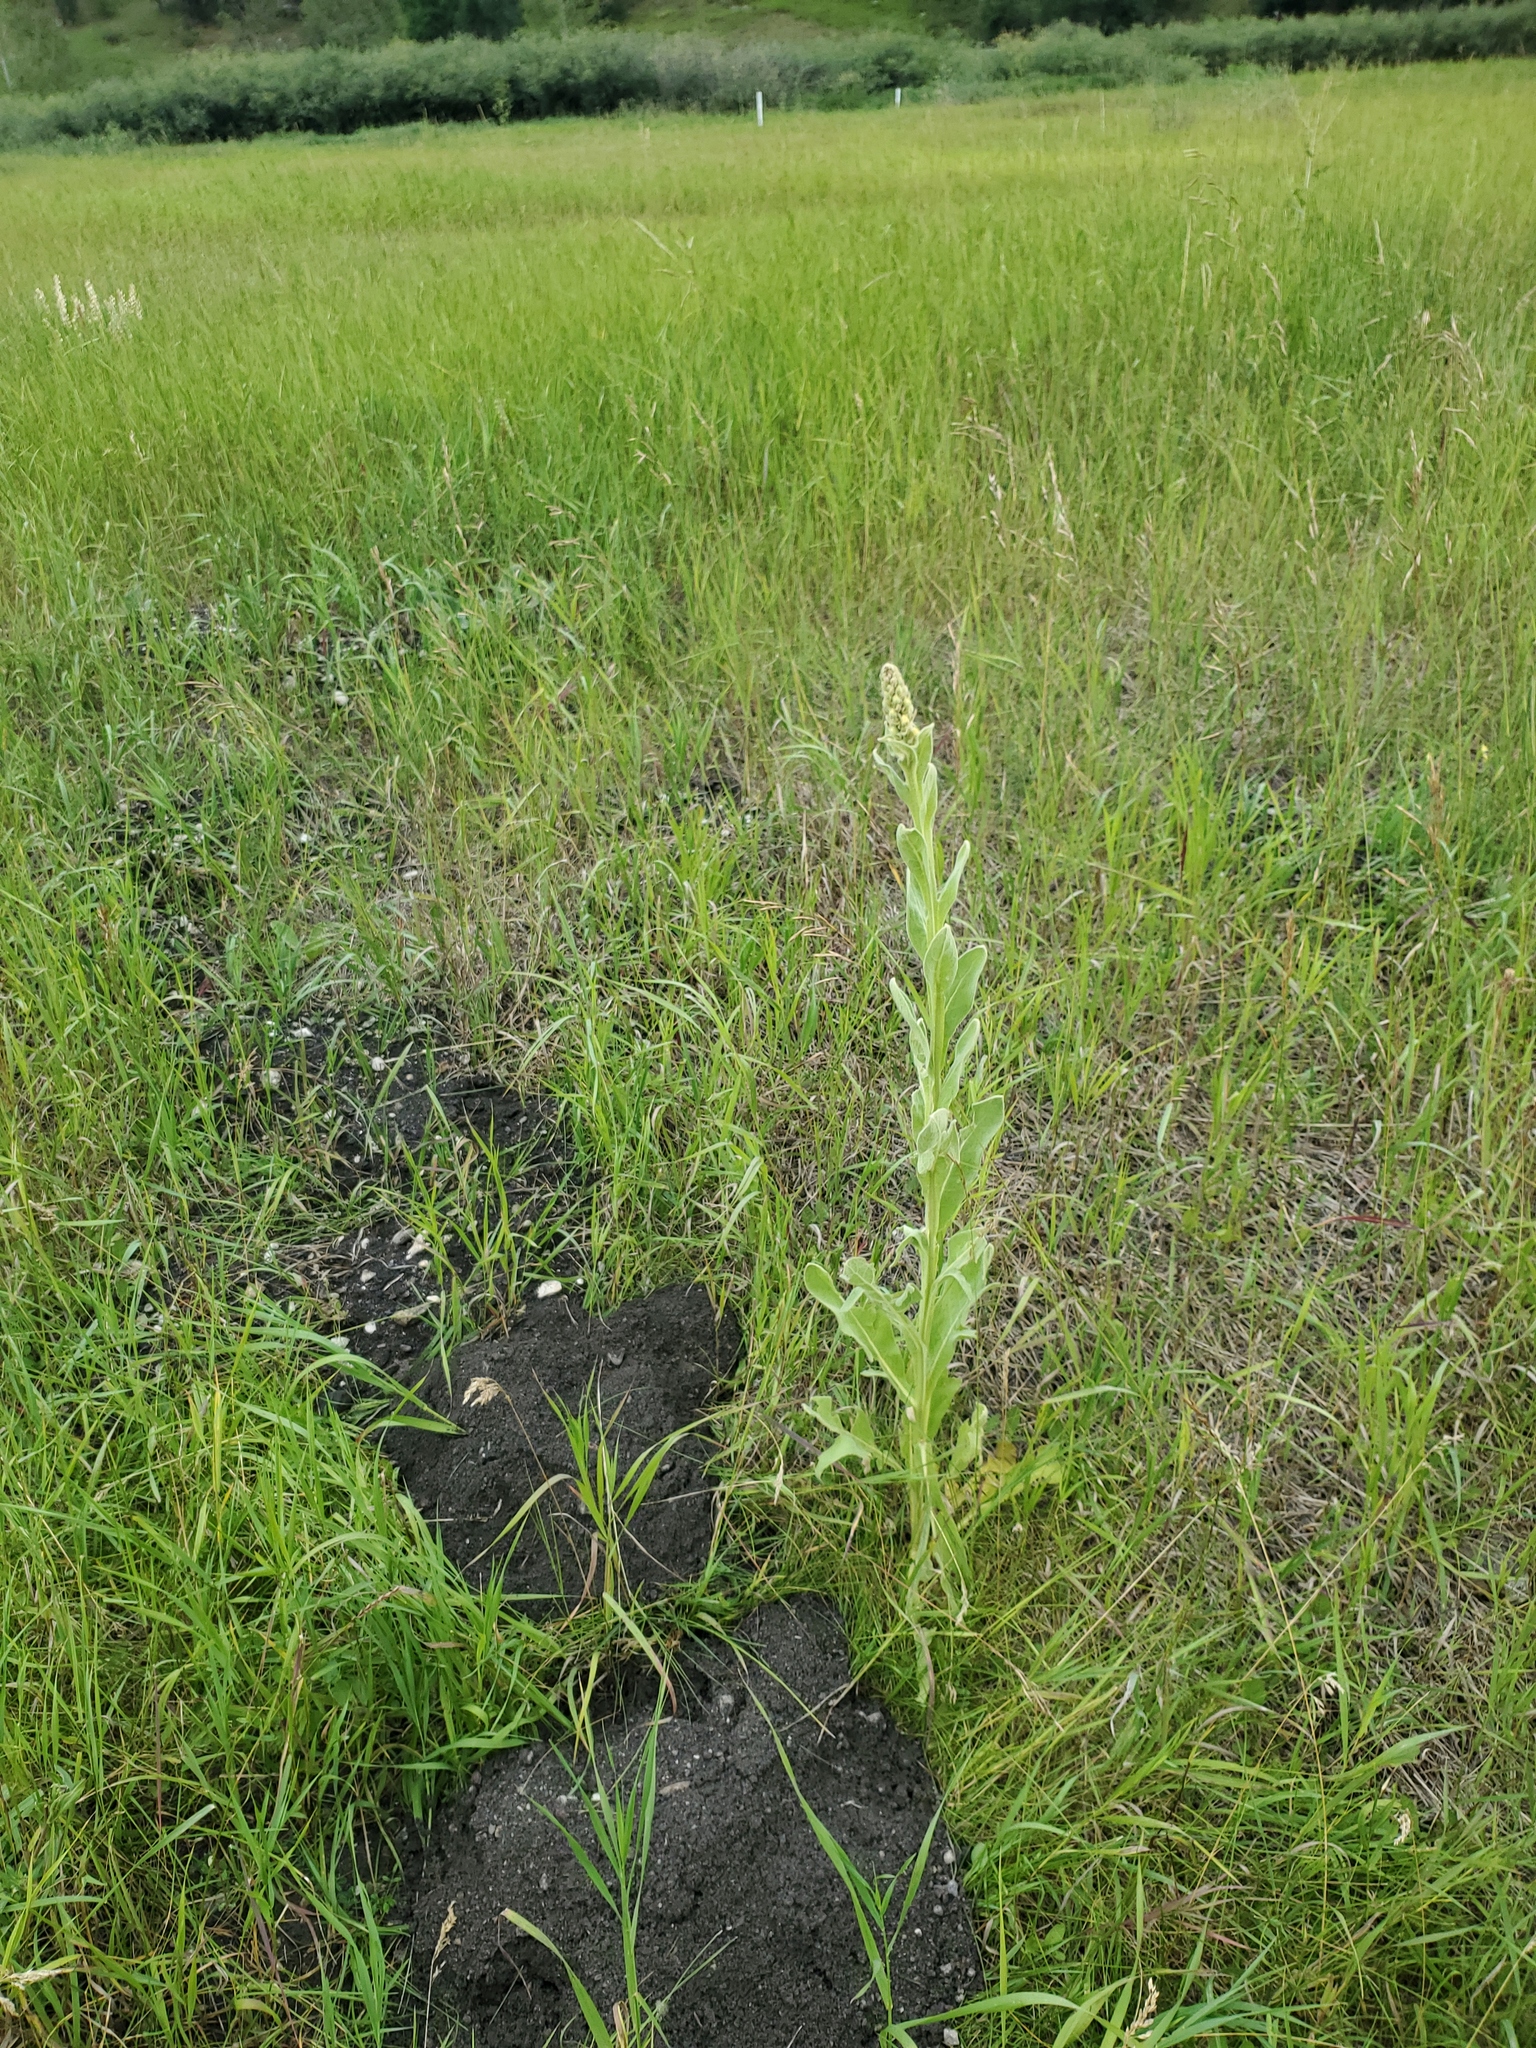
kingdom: Plantae
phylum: Tracheophyta
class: Magnoliopsida
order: Lamiales
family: Scrophulariaceae
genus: Verbascum
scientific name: Verbascum thapsus
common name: Common mullein
